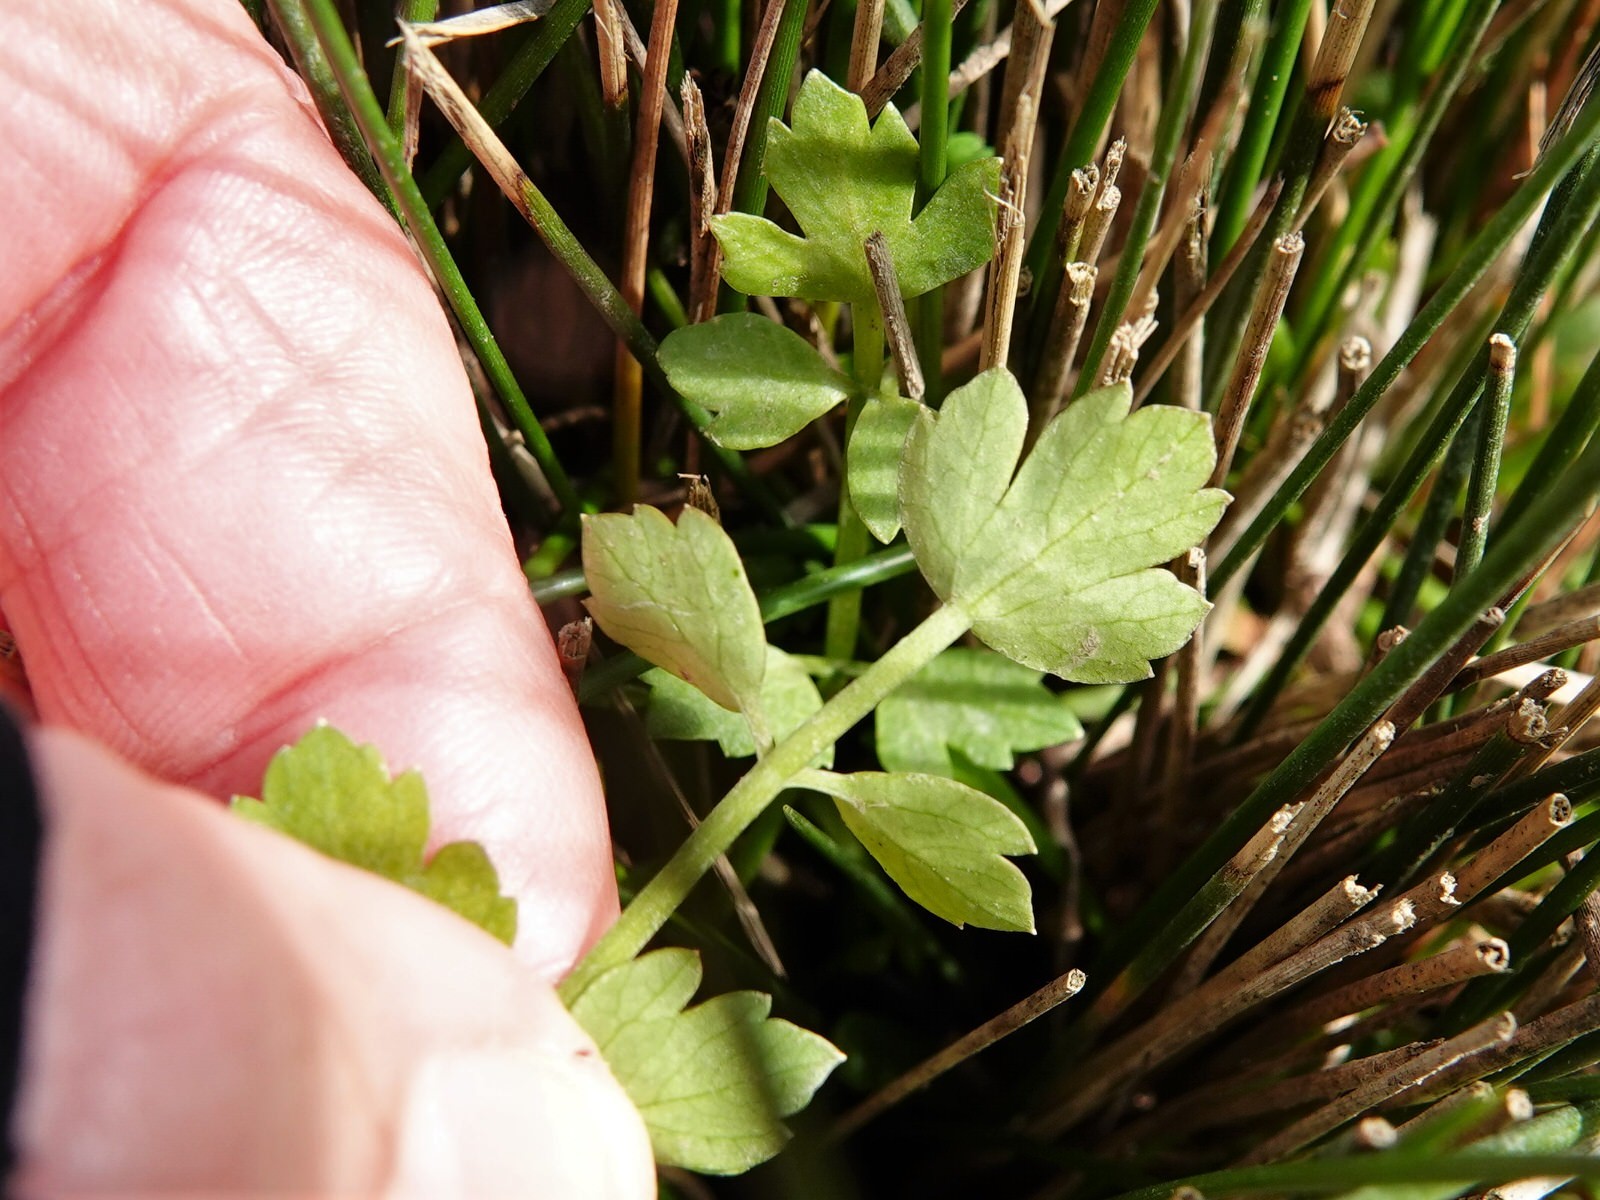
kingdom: Plantae
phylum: Tracheophyta
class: Magnoliopsida
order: Apiales
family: Apiaceae
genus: Apium
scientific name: Apium prostratum
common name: Prostrate marshwort
